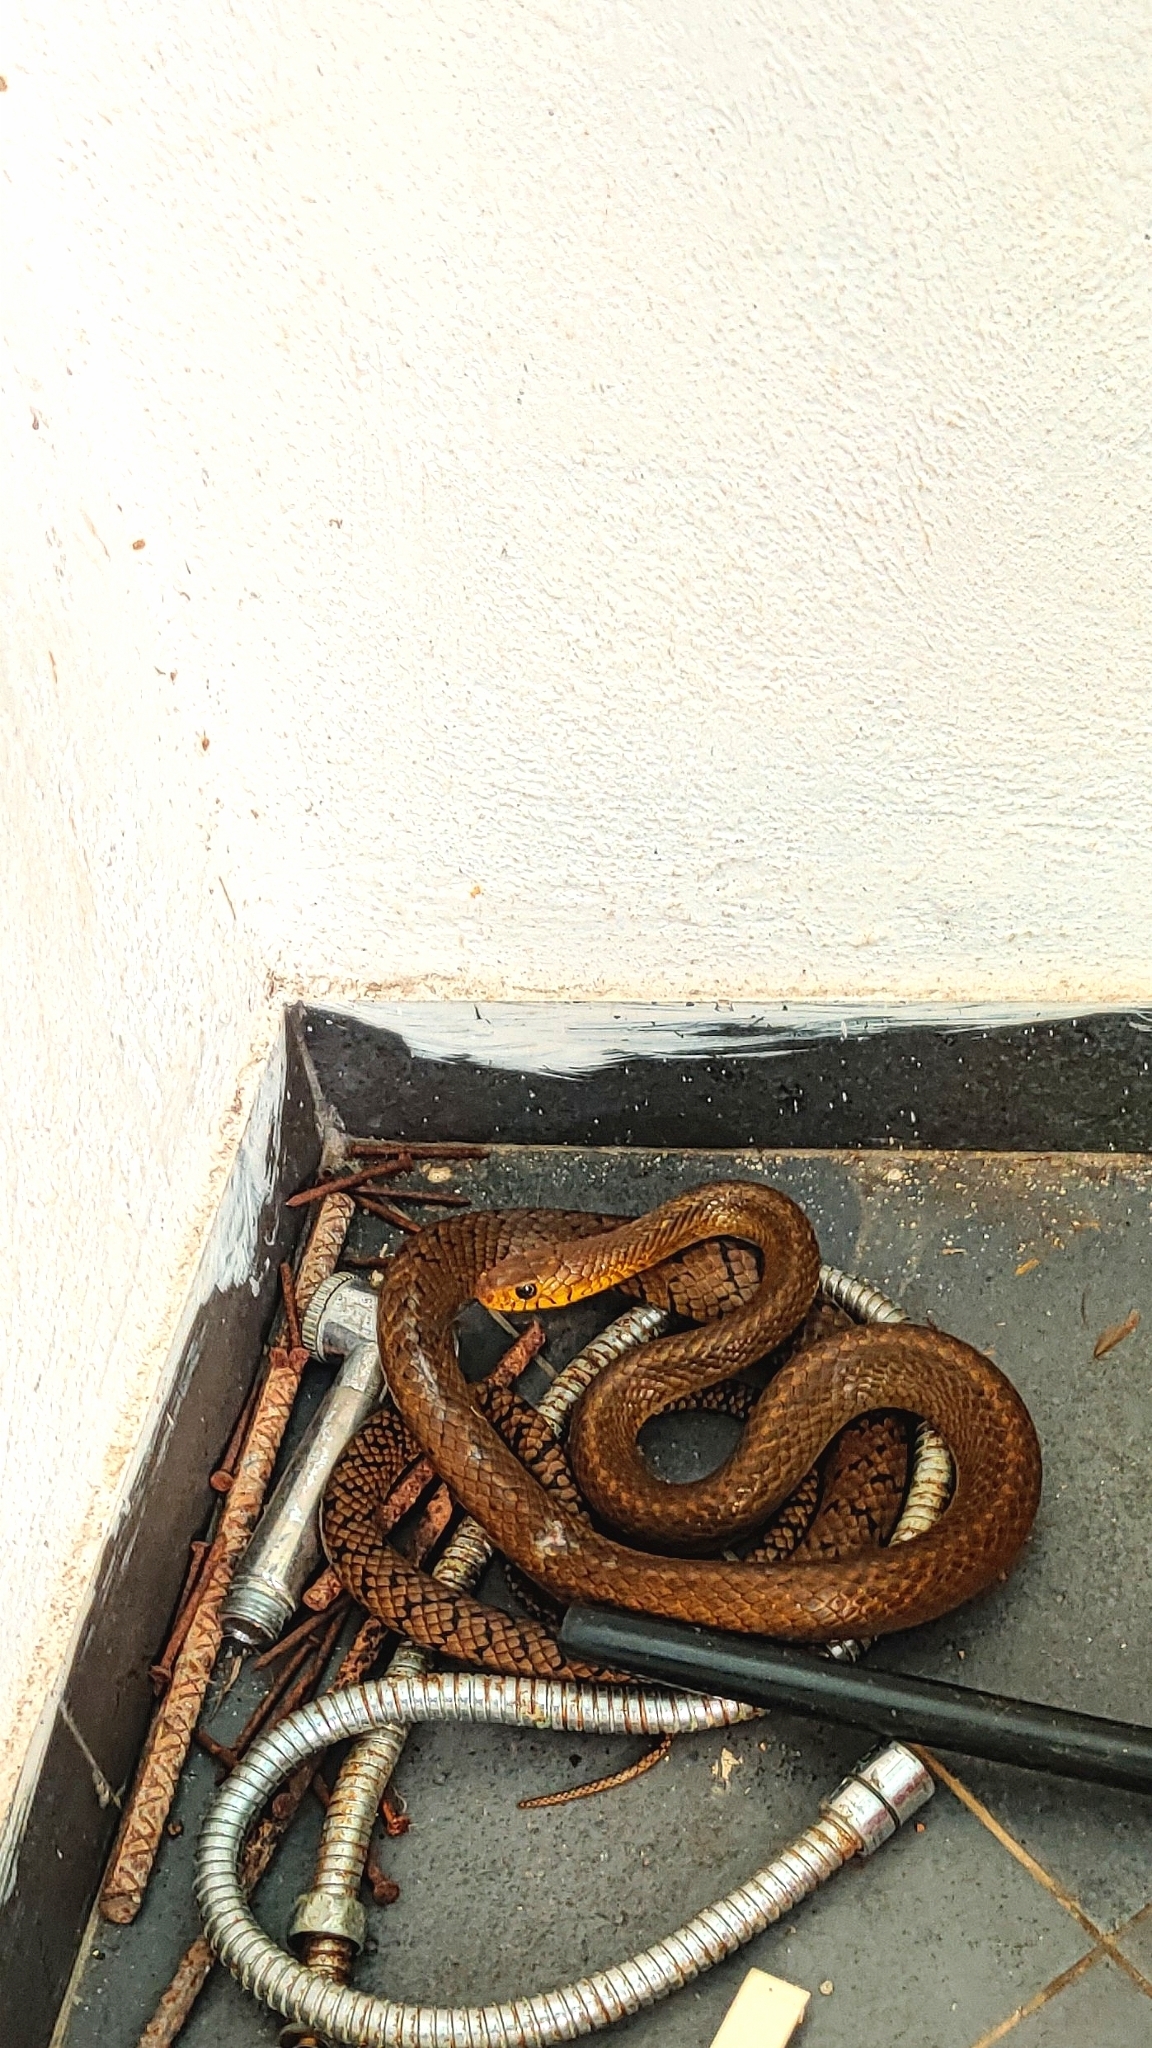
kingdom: Animalia
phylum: Chordata
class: Squamata
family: Colubridae
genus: Ptyas
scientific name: Ptyas mucosa
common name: Oriental ratsnake
